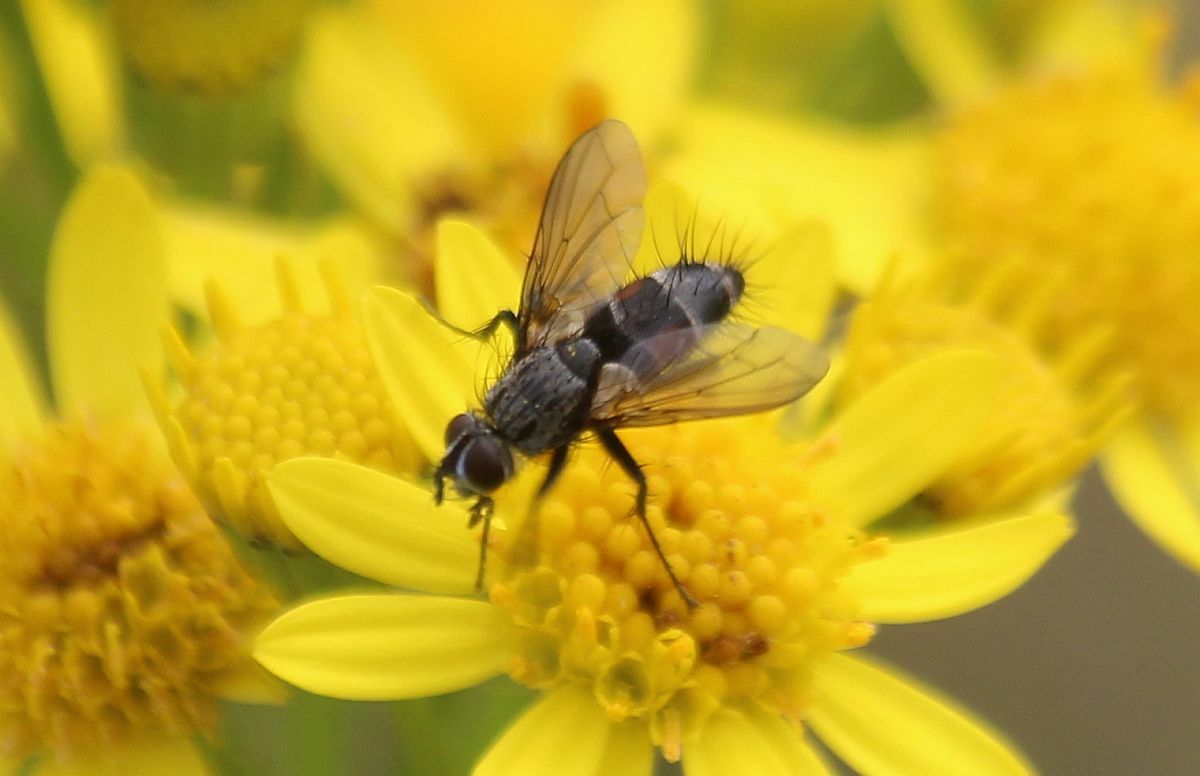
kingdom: Animalia
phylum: Arthropoda
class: Insecta
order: Diptera
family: Tachinidae
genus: Eriothrix
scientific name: Eriothrix rufomaculatus
